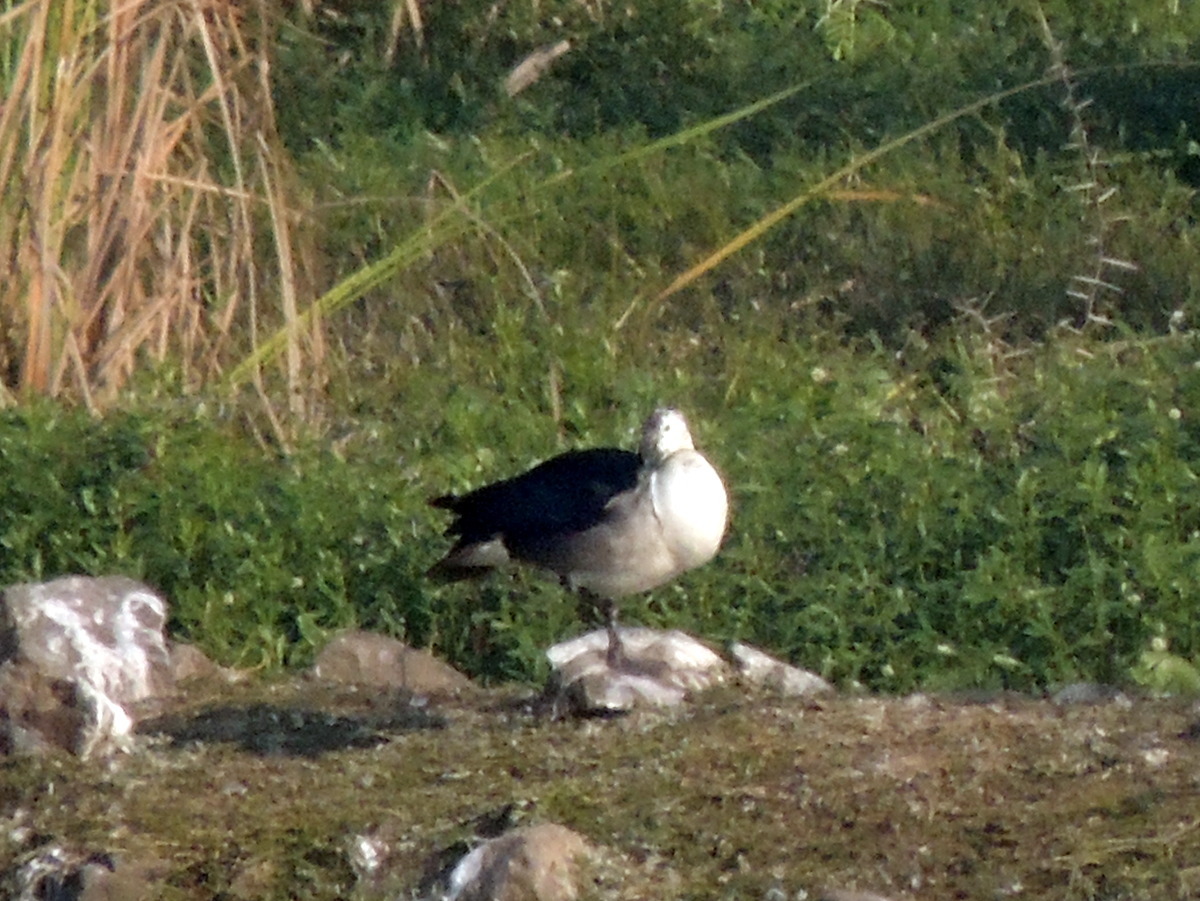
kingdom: Animalia
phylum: Chordata
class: Aves
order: Anseriformes
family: Anatidae
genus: Sarkidiornis
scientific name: Sarkidiornis melanotos
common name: Comb duck
